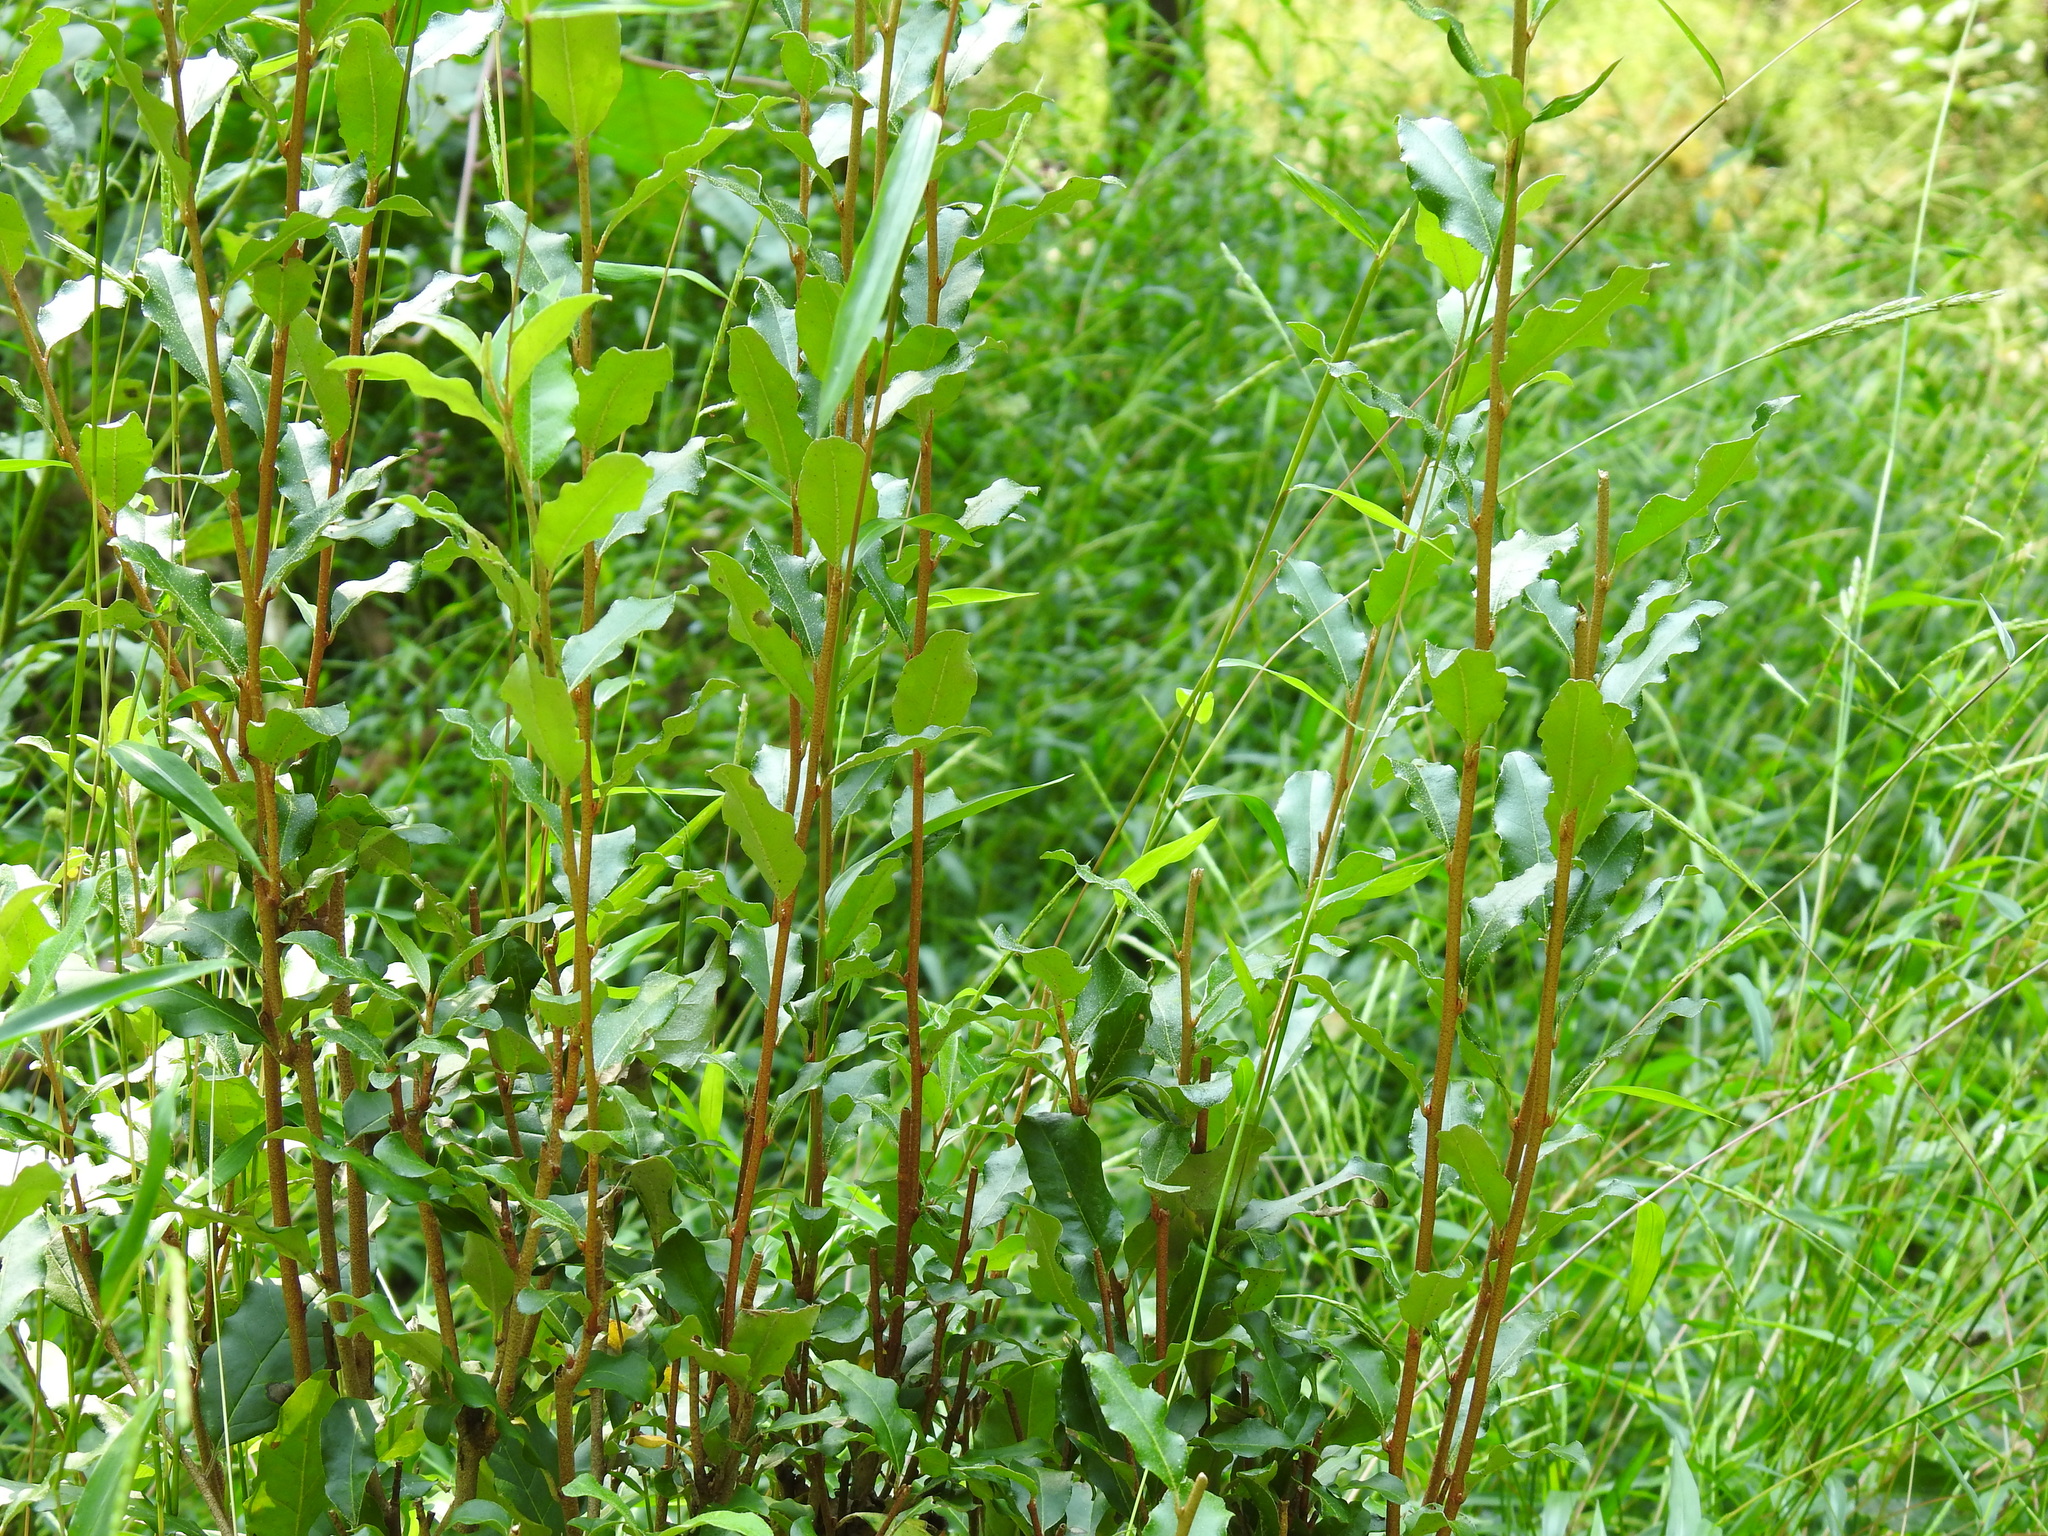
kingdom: Plantae
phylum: Tracheophyta
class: Magnoliopsida
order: Rosales
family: Elaeagnaceae
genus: Elaeagnus
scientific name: Elaeagnus umbellata
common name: Autumn olive
